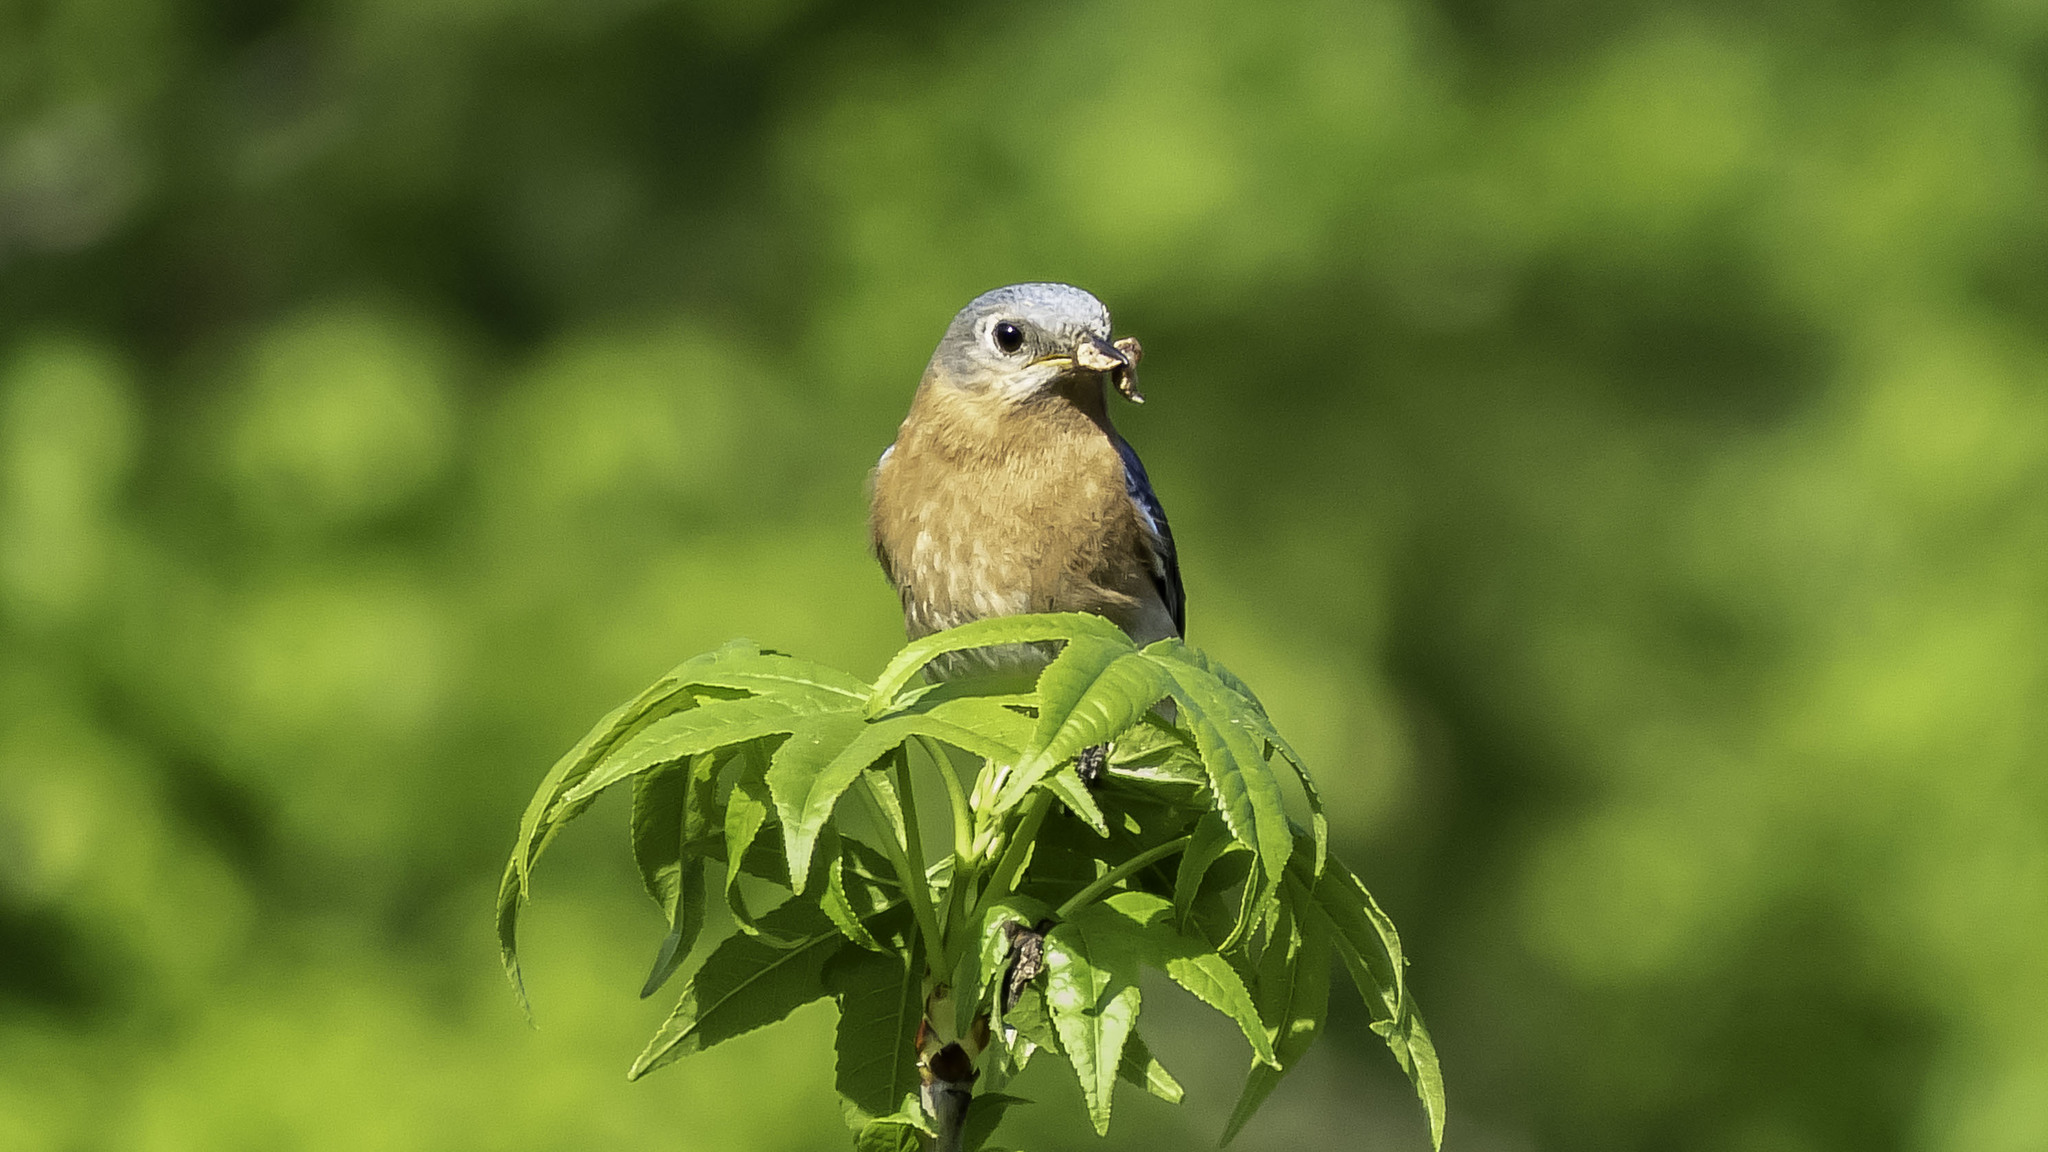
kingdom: Animalia
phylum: Chordata
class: Aves
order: Passeriformes
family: Turdidae
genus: Sialia
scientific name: Sialia sialis
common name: Eastern bluebird
